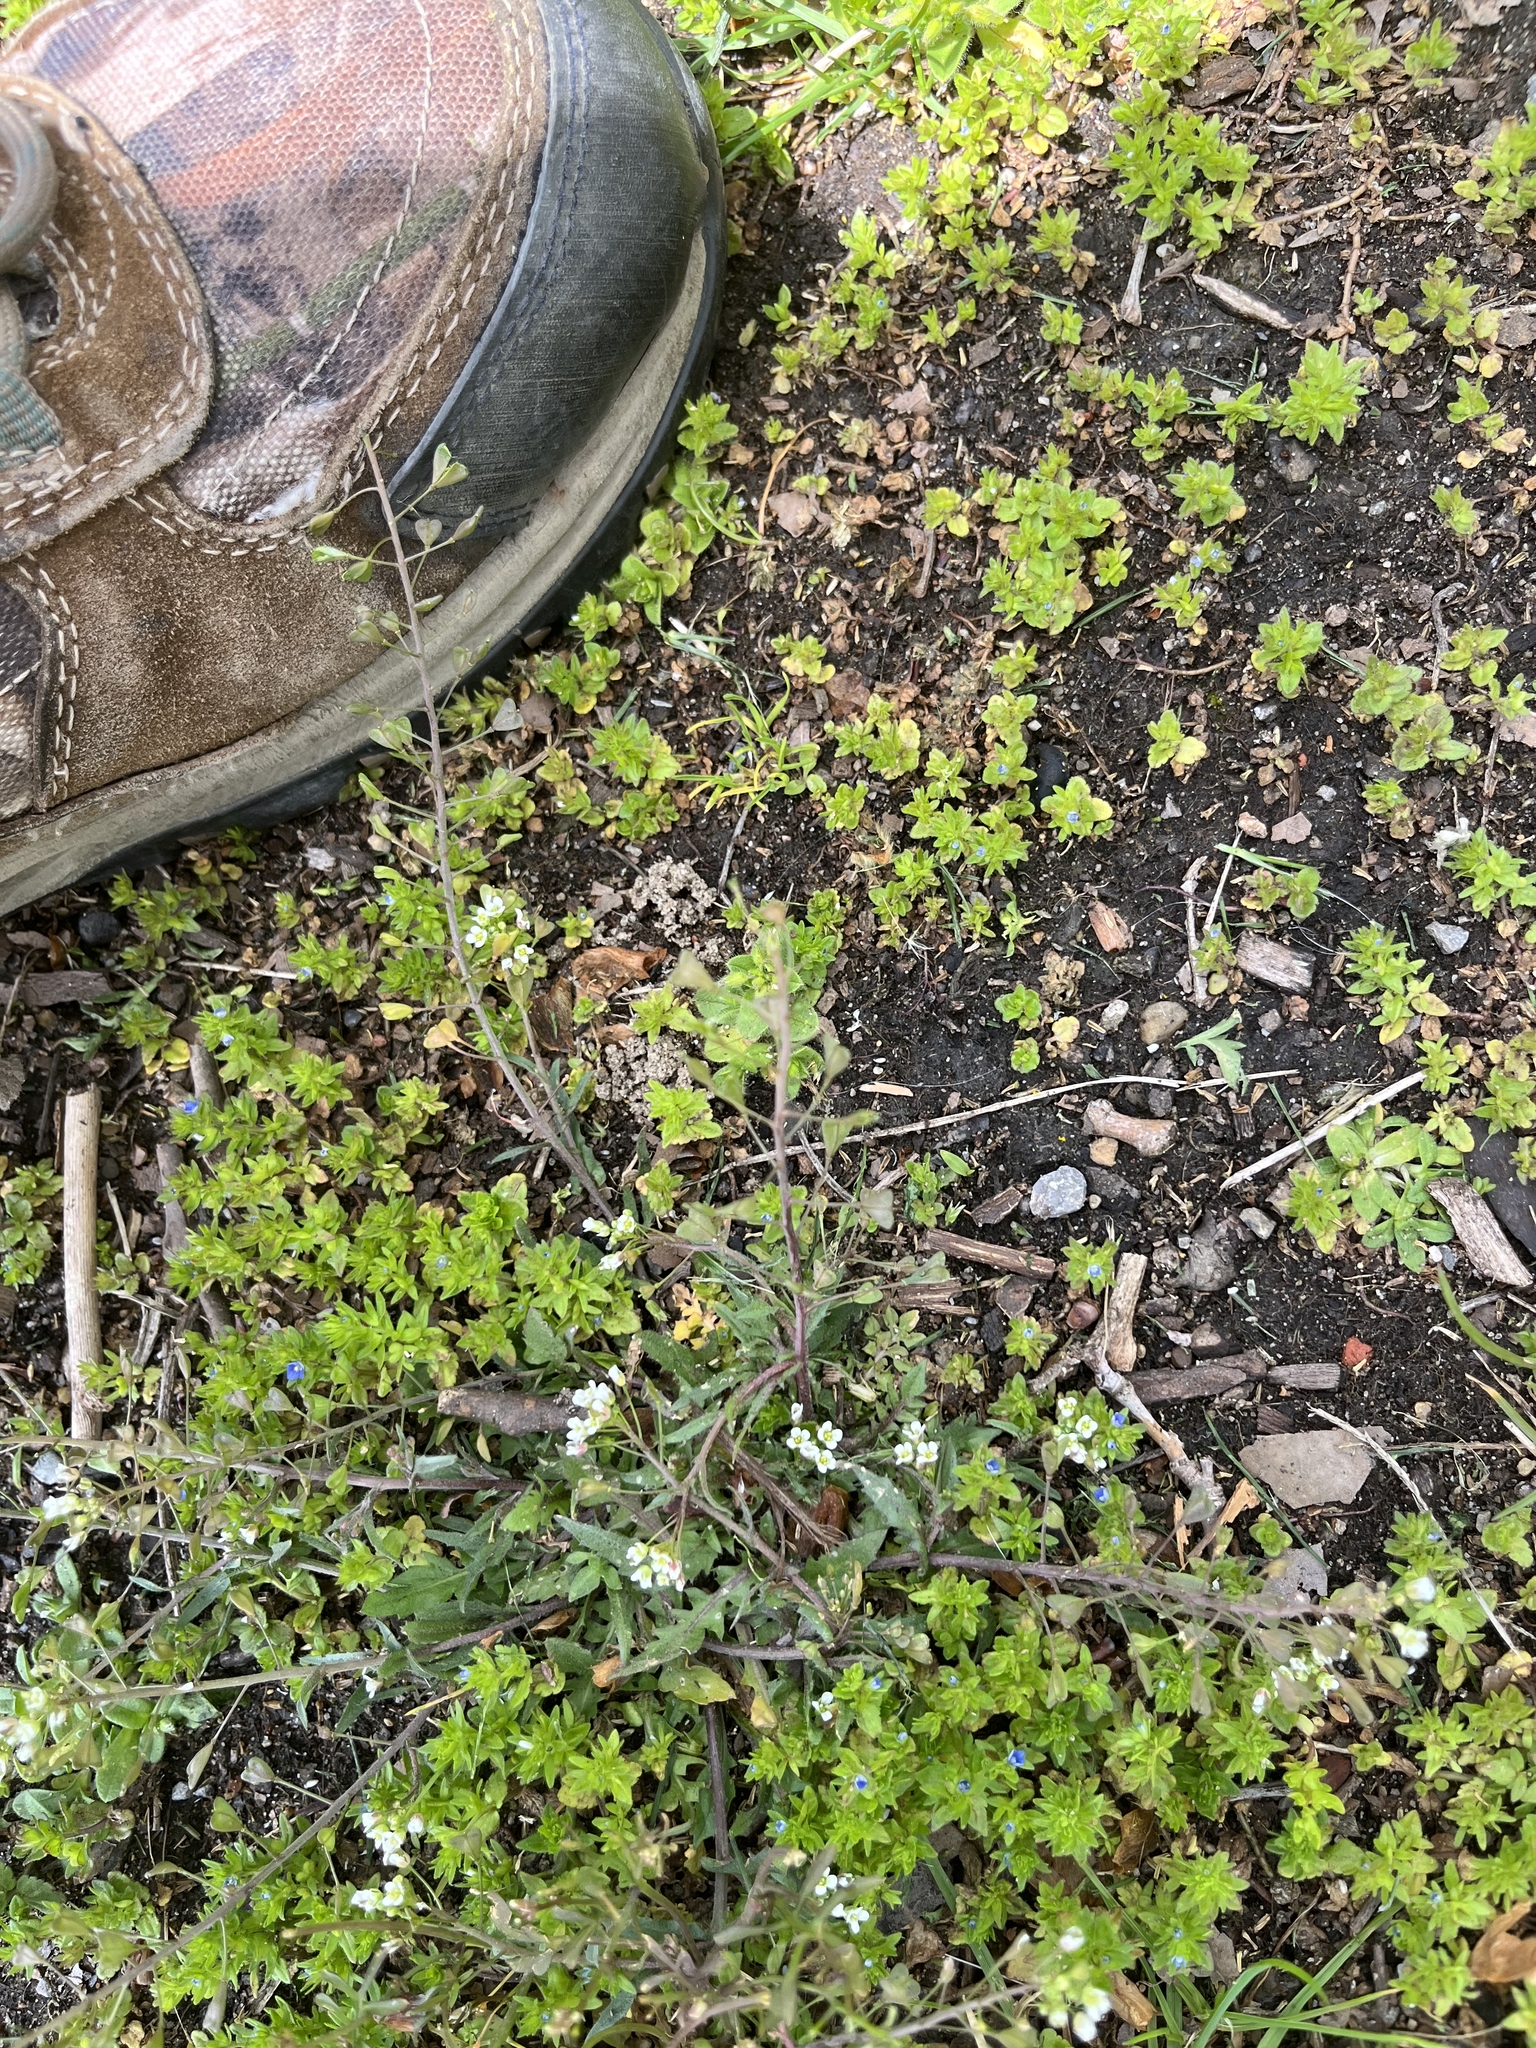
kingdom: Plantae
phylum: Tracheophyta
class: Magnoliopsida
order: Brassicales
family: Brassicaceae
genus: Capsella
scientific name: Capsella bursa-pastoris
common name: Shepherd's purse
